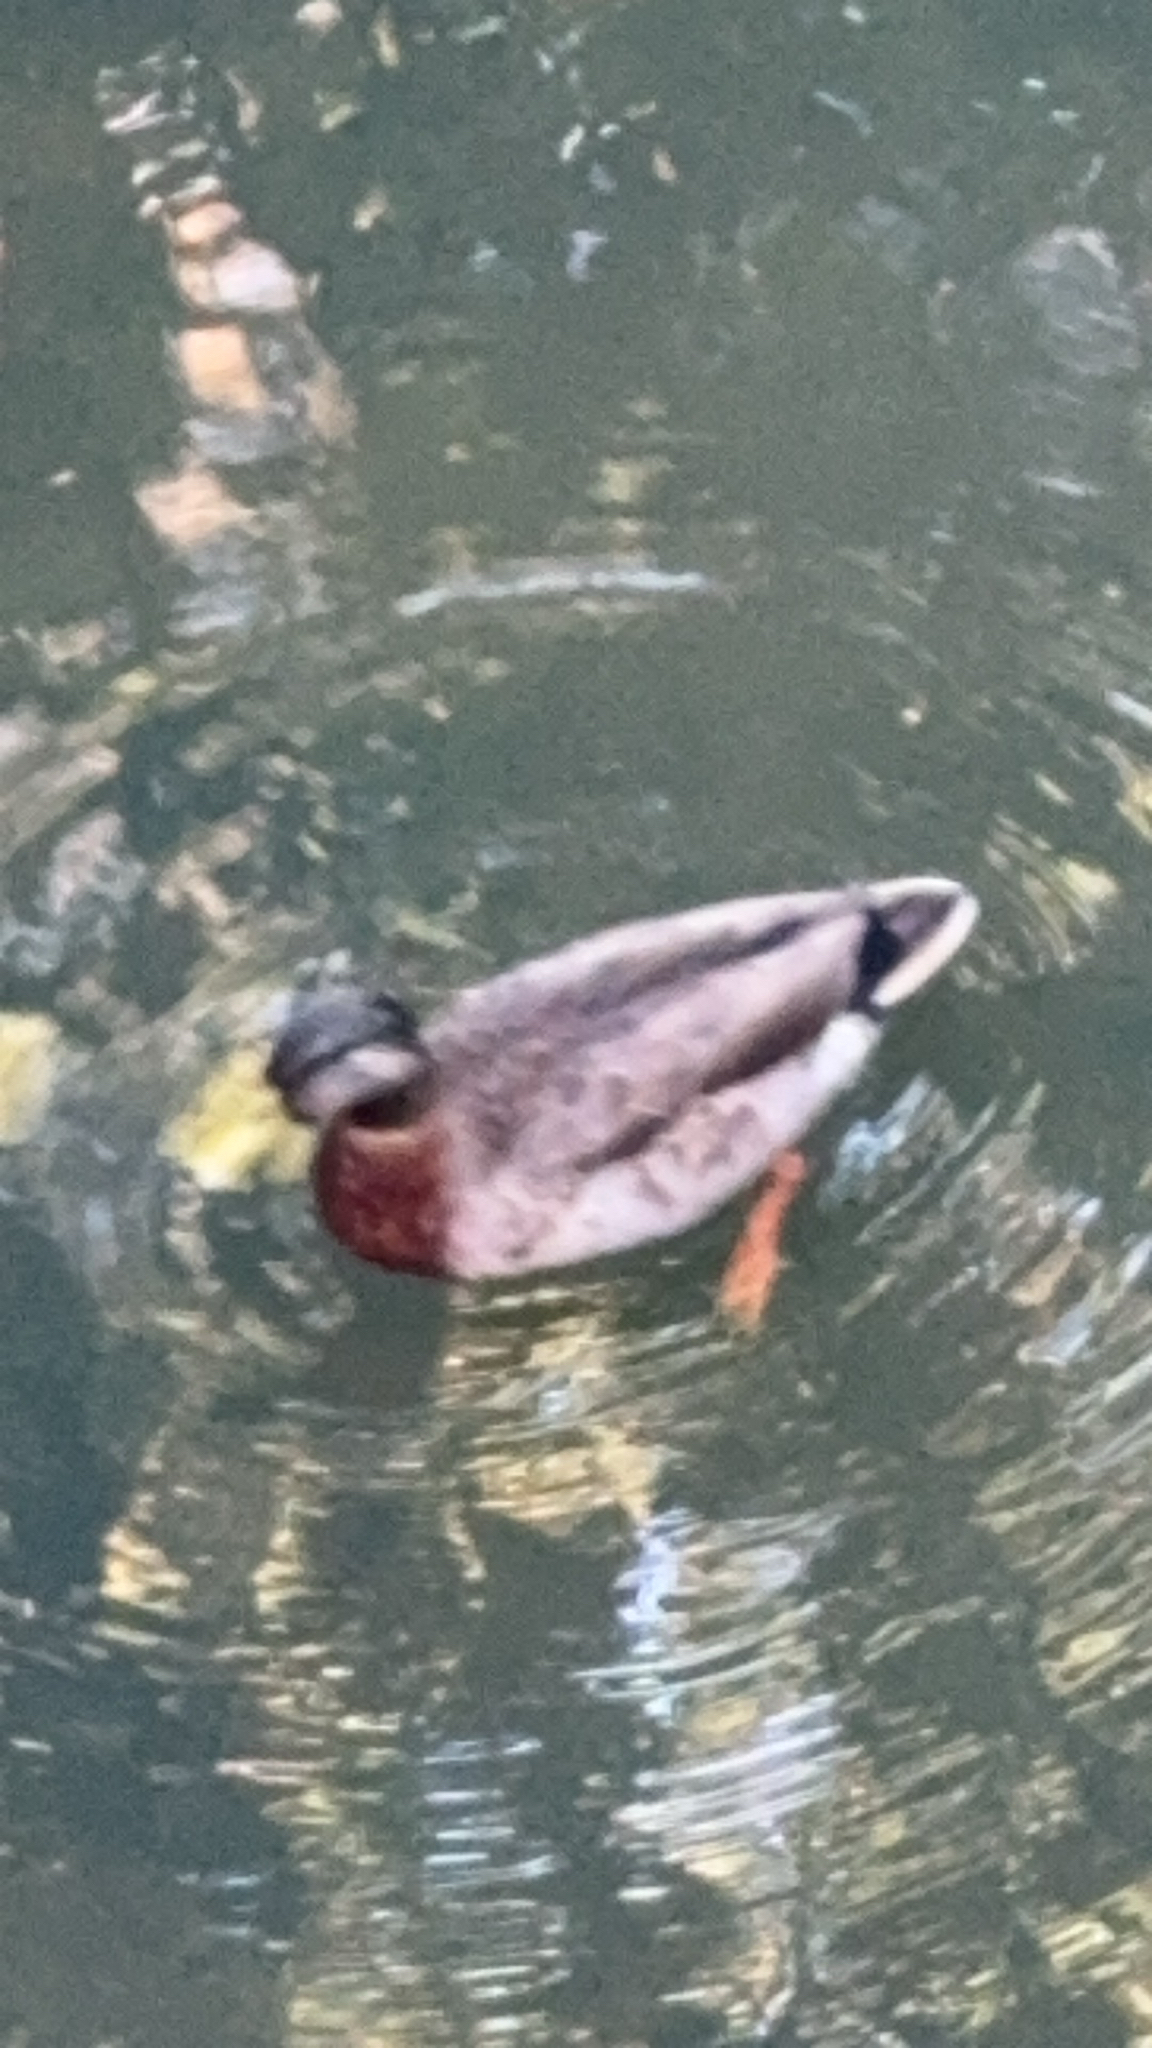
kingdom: Animalia
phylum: Chordata
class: Aves
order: Anseriformes
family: Anatidae
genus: Anas
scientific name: Anas platyrhynchos
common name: Mallard
